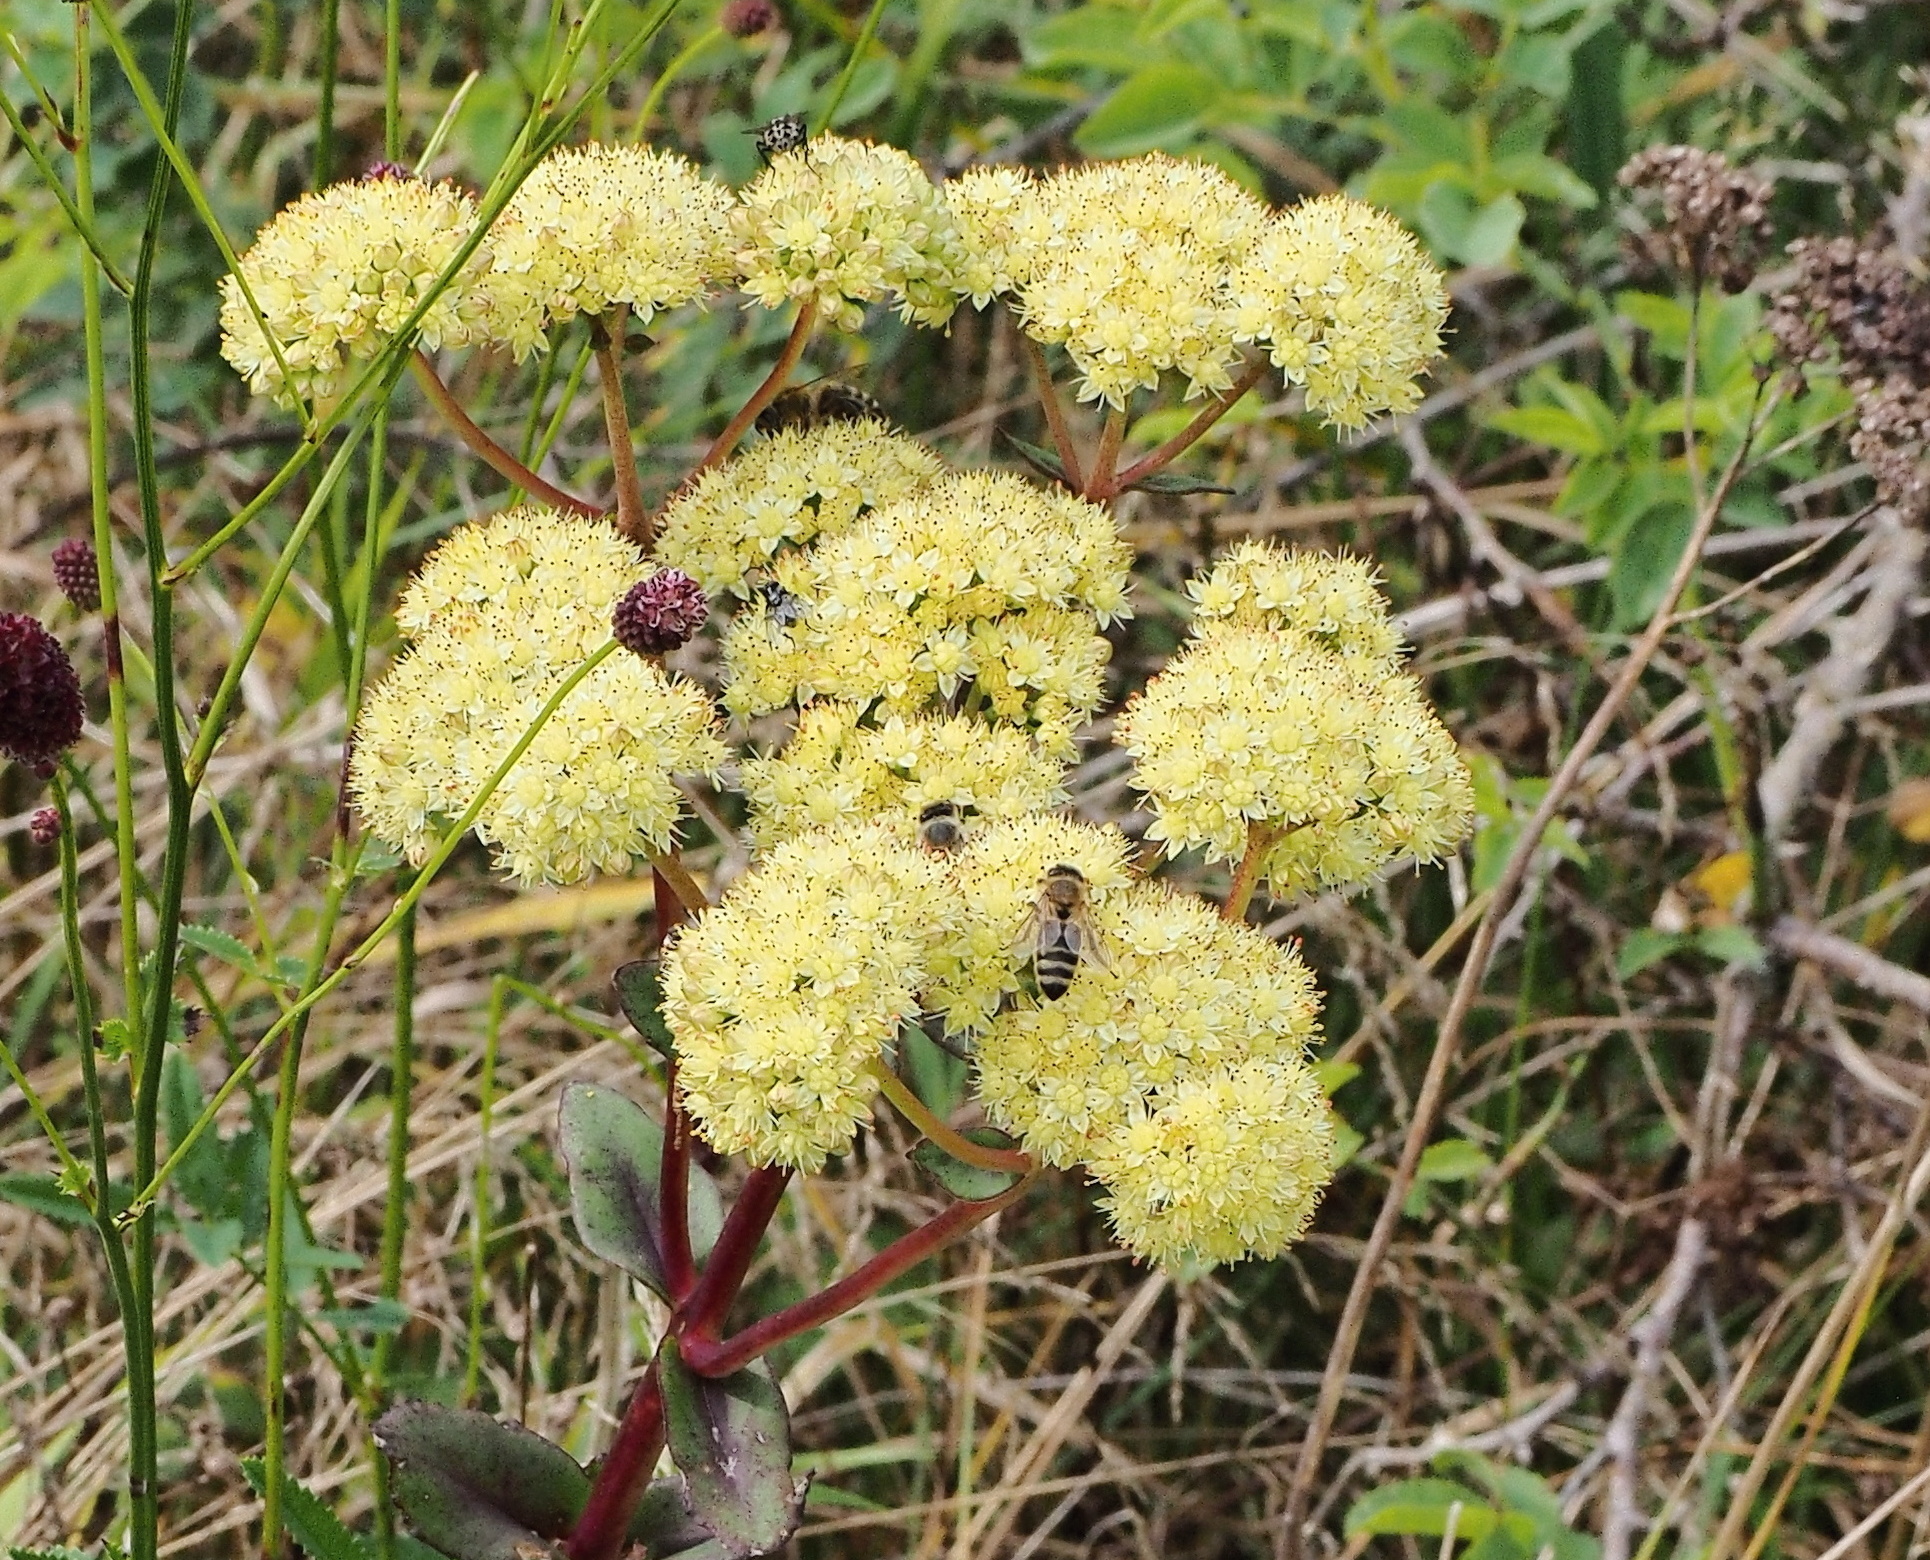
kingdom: Plantae
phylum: Tracheophyta
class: Magnoliopsida
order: Saxifragales
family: Crassulaceae
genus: Hylotelephium
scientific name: Hylotelephium maximum
